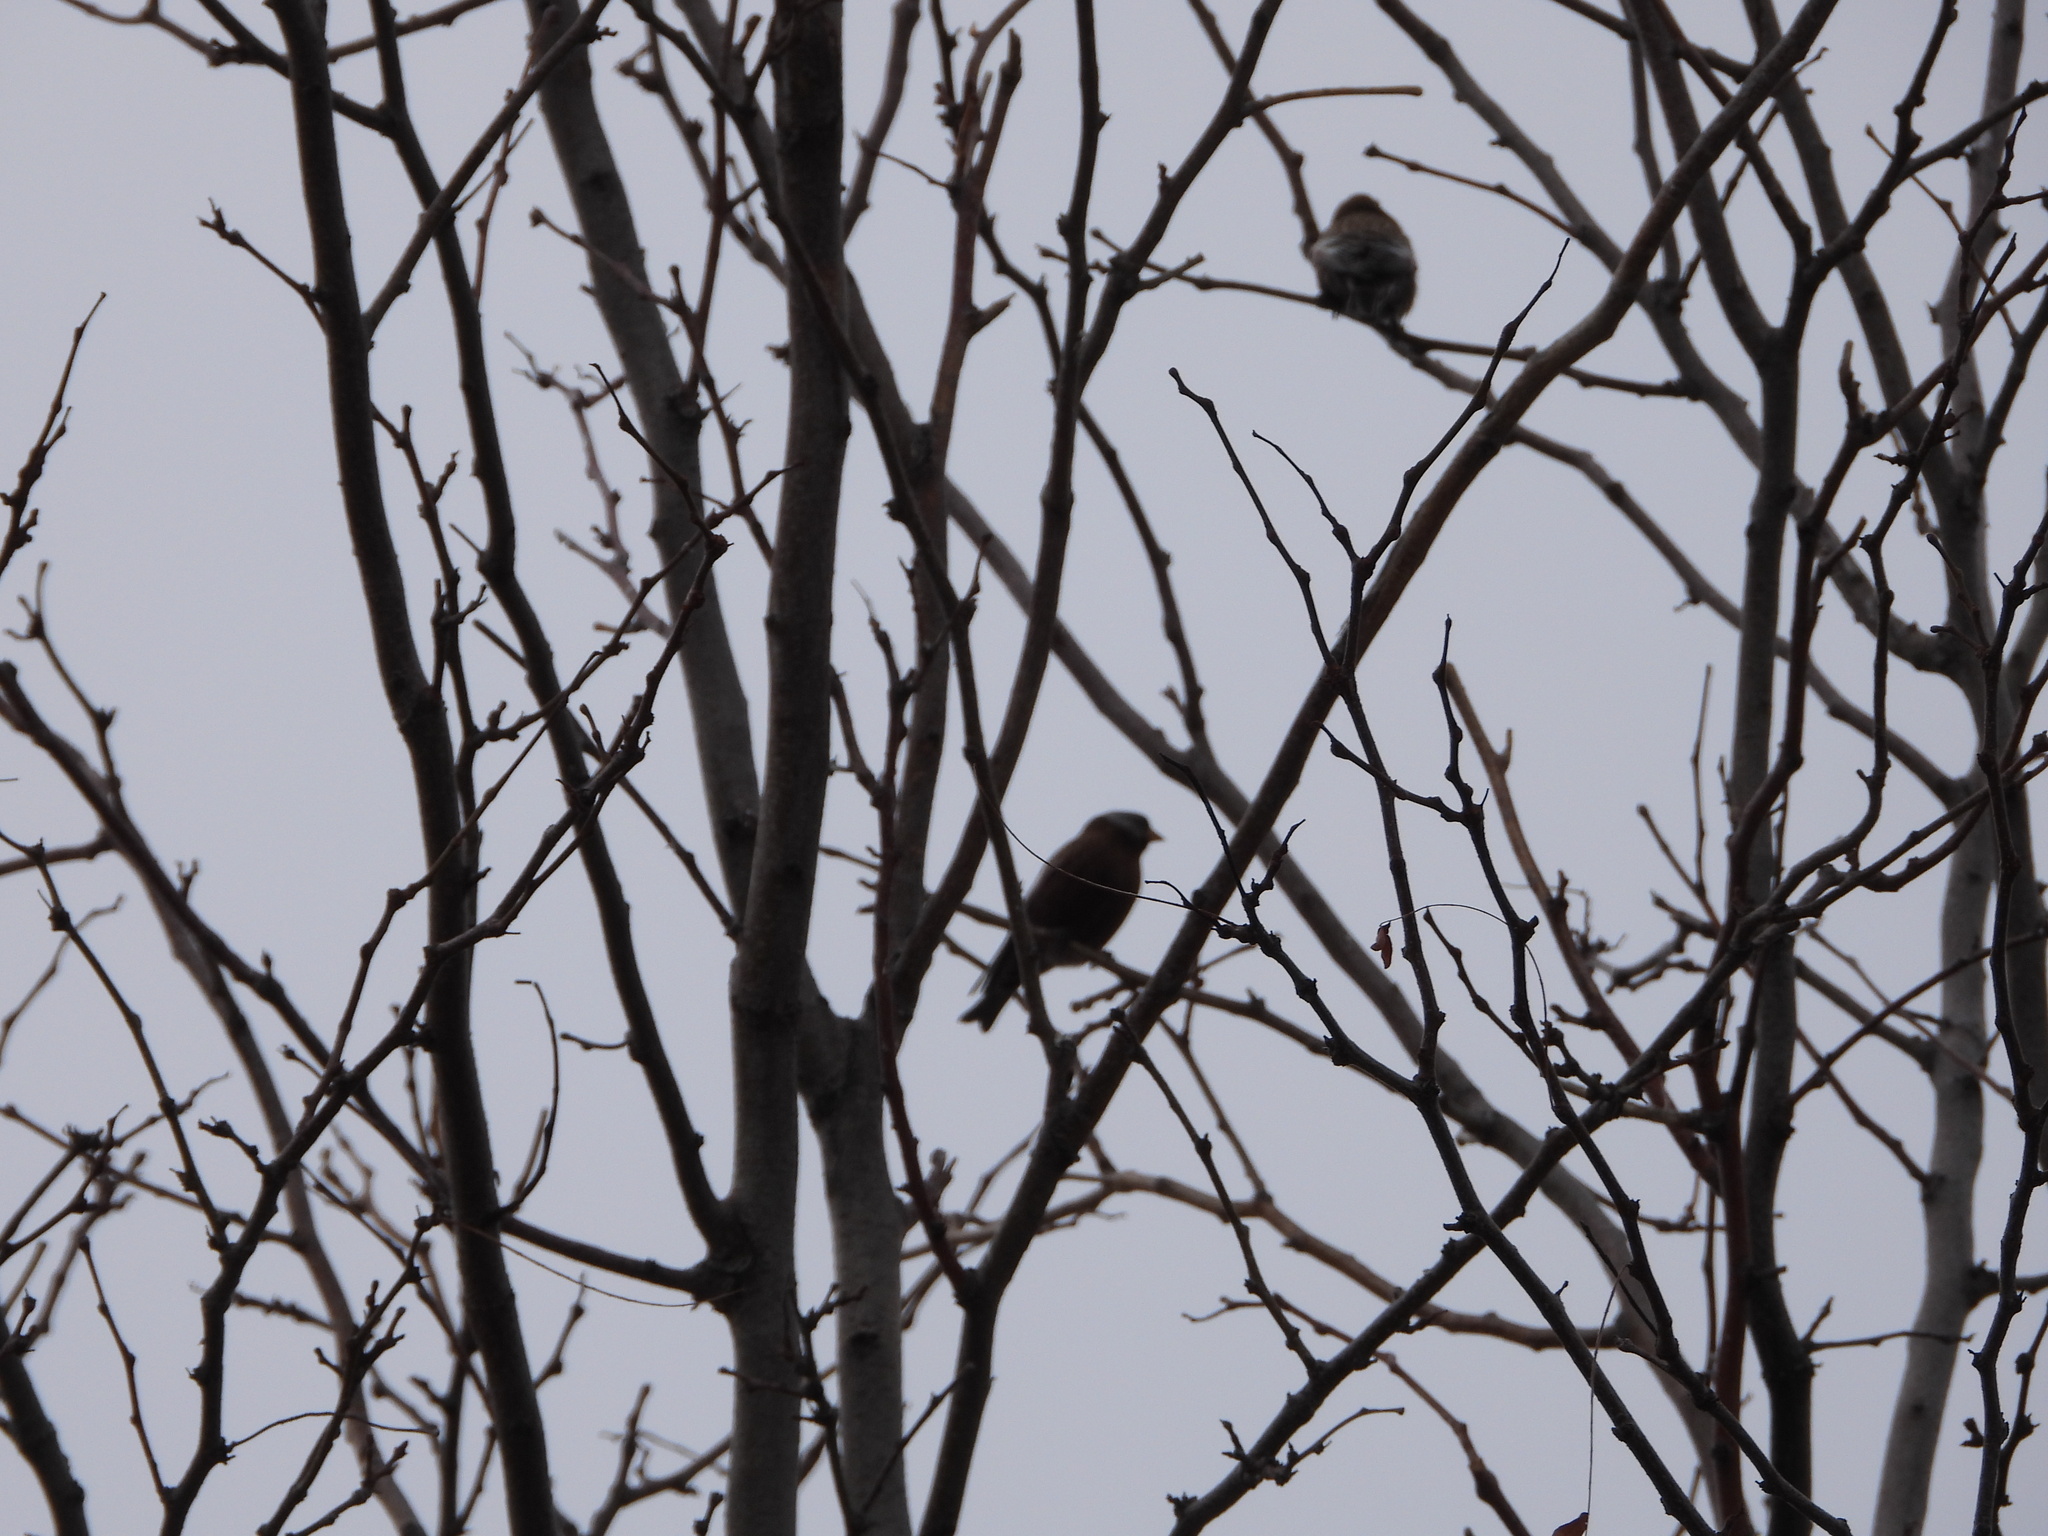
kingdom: Animalia
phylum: Chordata
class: Aves
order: Passeriformes
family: Fringillidae
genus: Leucosticte
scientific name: Leucosticte tephrocotis
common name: Gray-crowned rosy-finch
